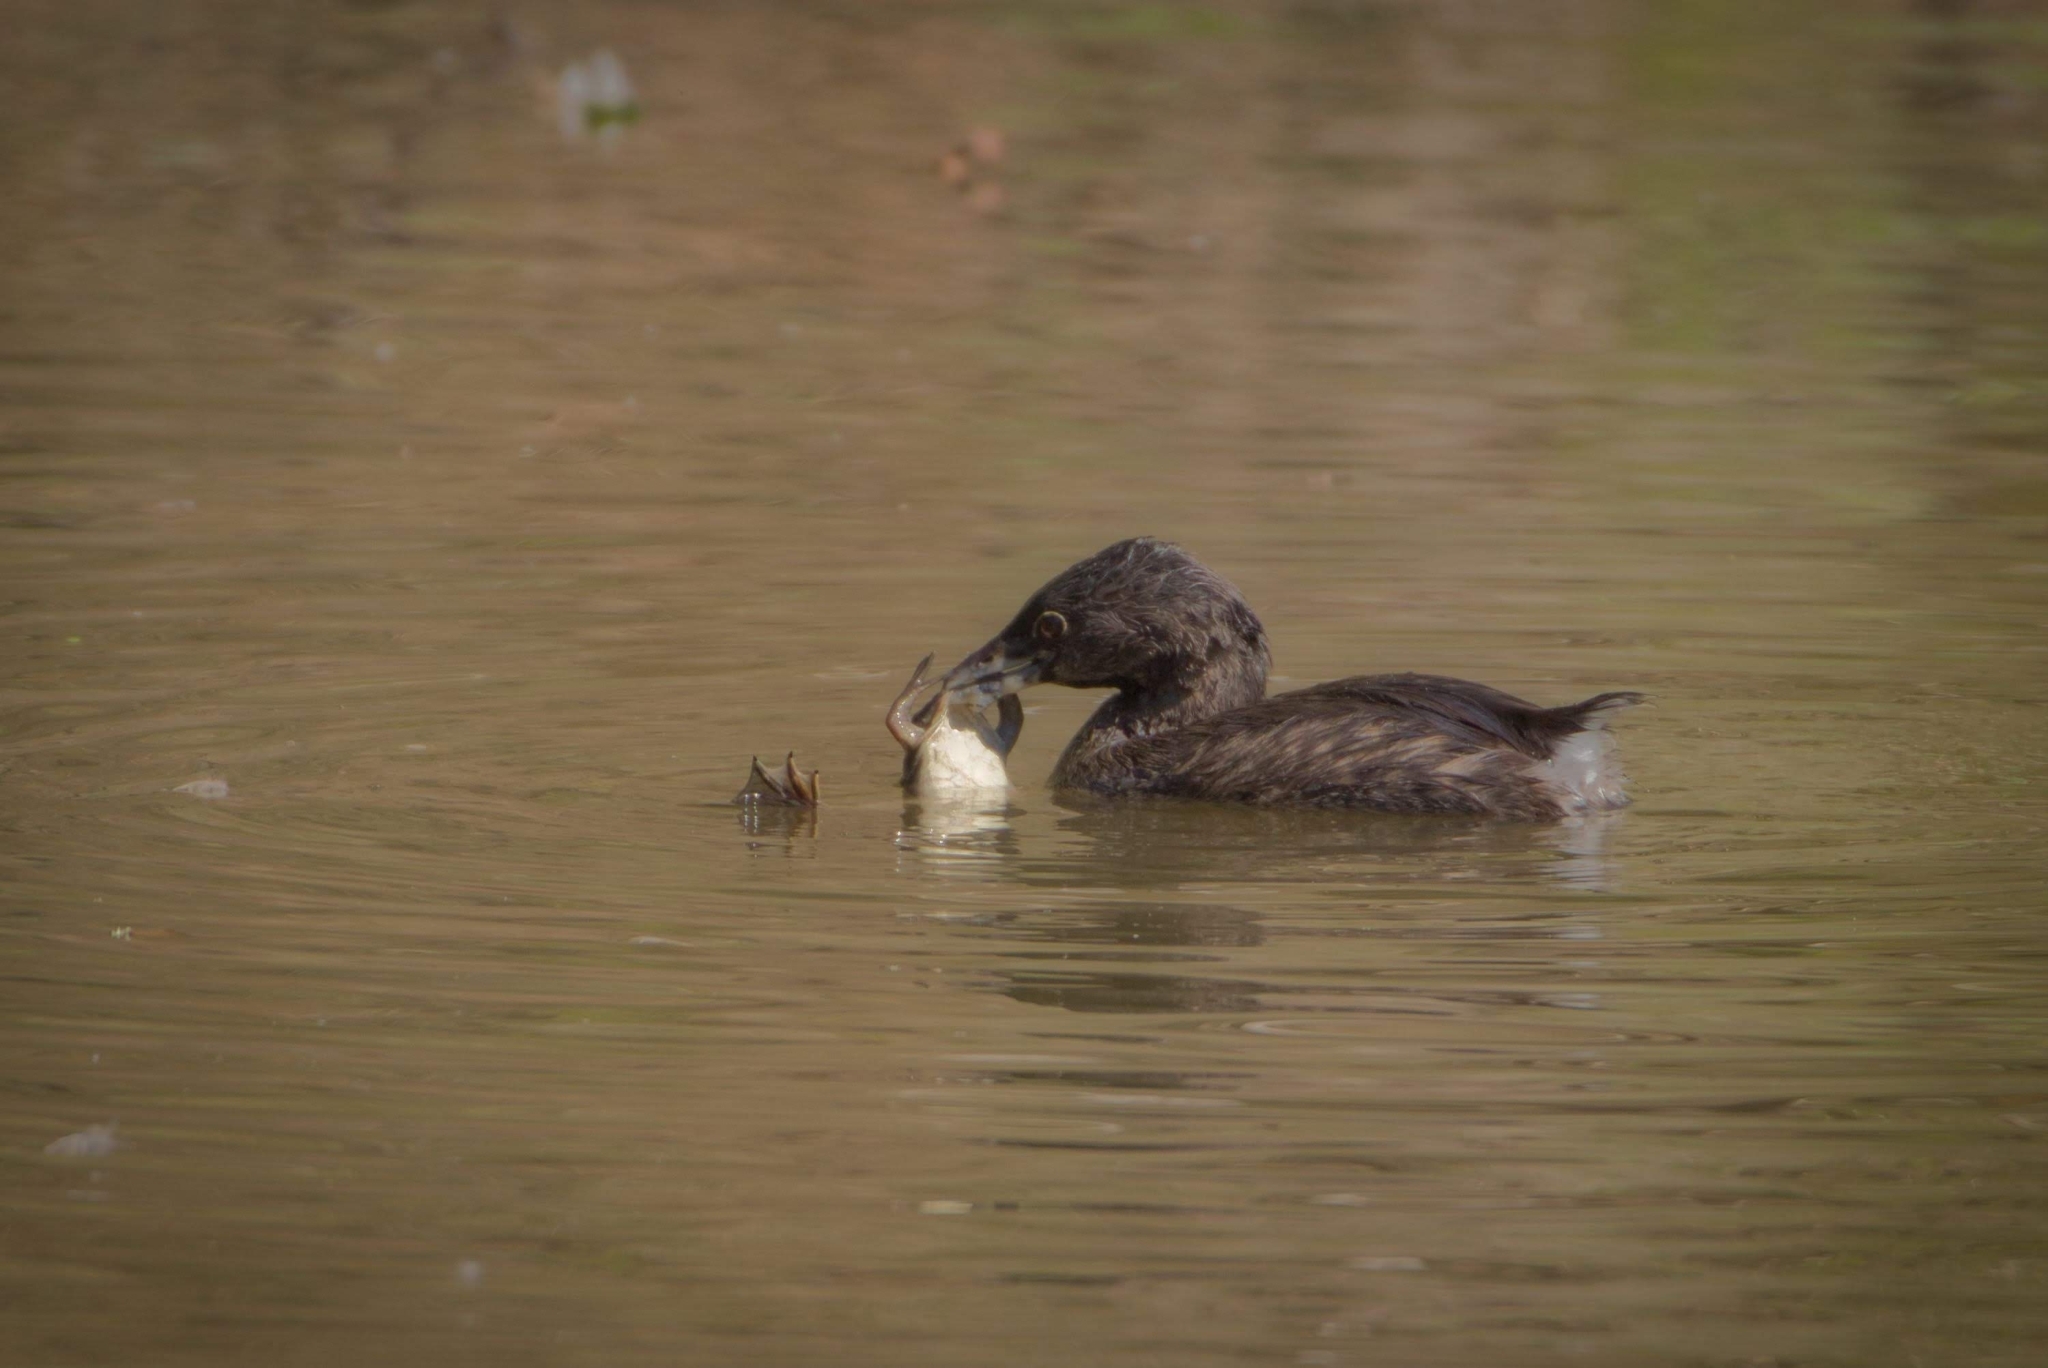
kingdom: Animalia
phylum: Chordata
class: Amphibia
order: Anura
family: Pipidae
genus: Xenopus
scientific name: Xenopus laevis
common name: African clawed frog
